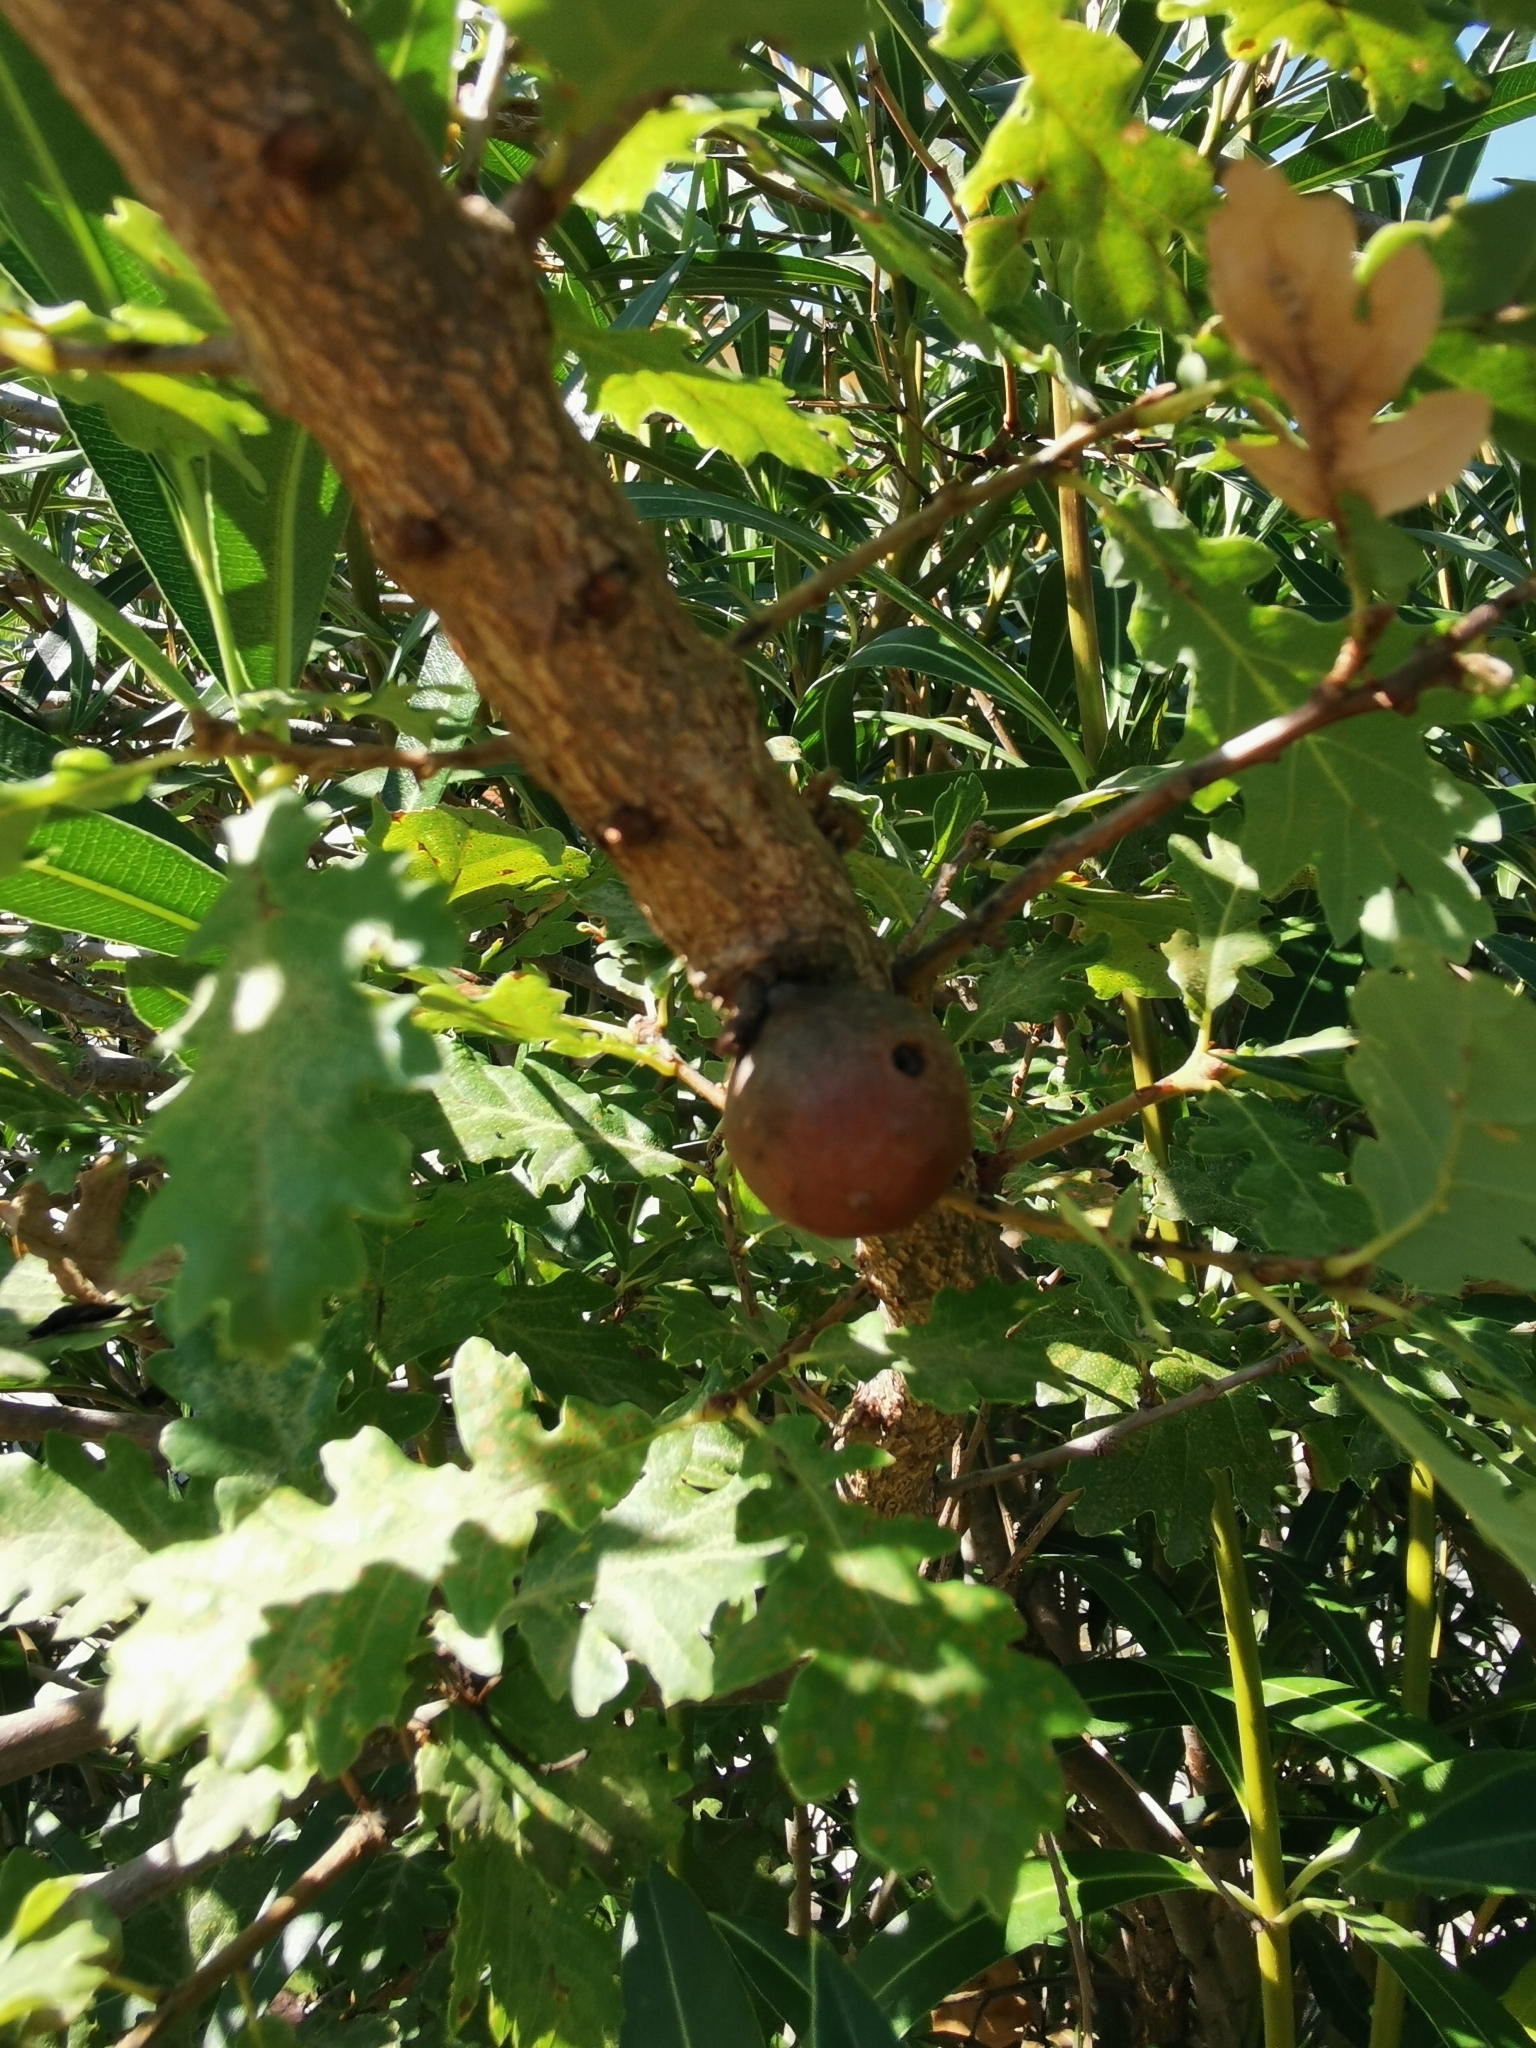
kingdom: Animalia
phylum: Arthropoda
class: Insecta
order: Hymenoptera
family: Cynipidae
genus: Andricus
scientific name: Andricus kollari
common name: Marble gall
